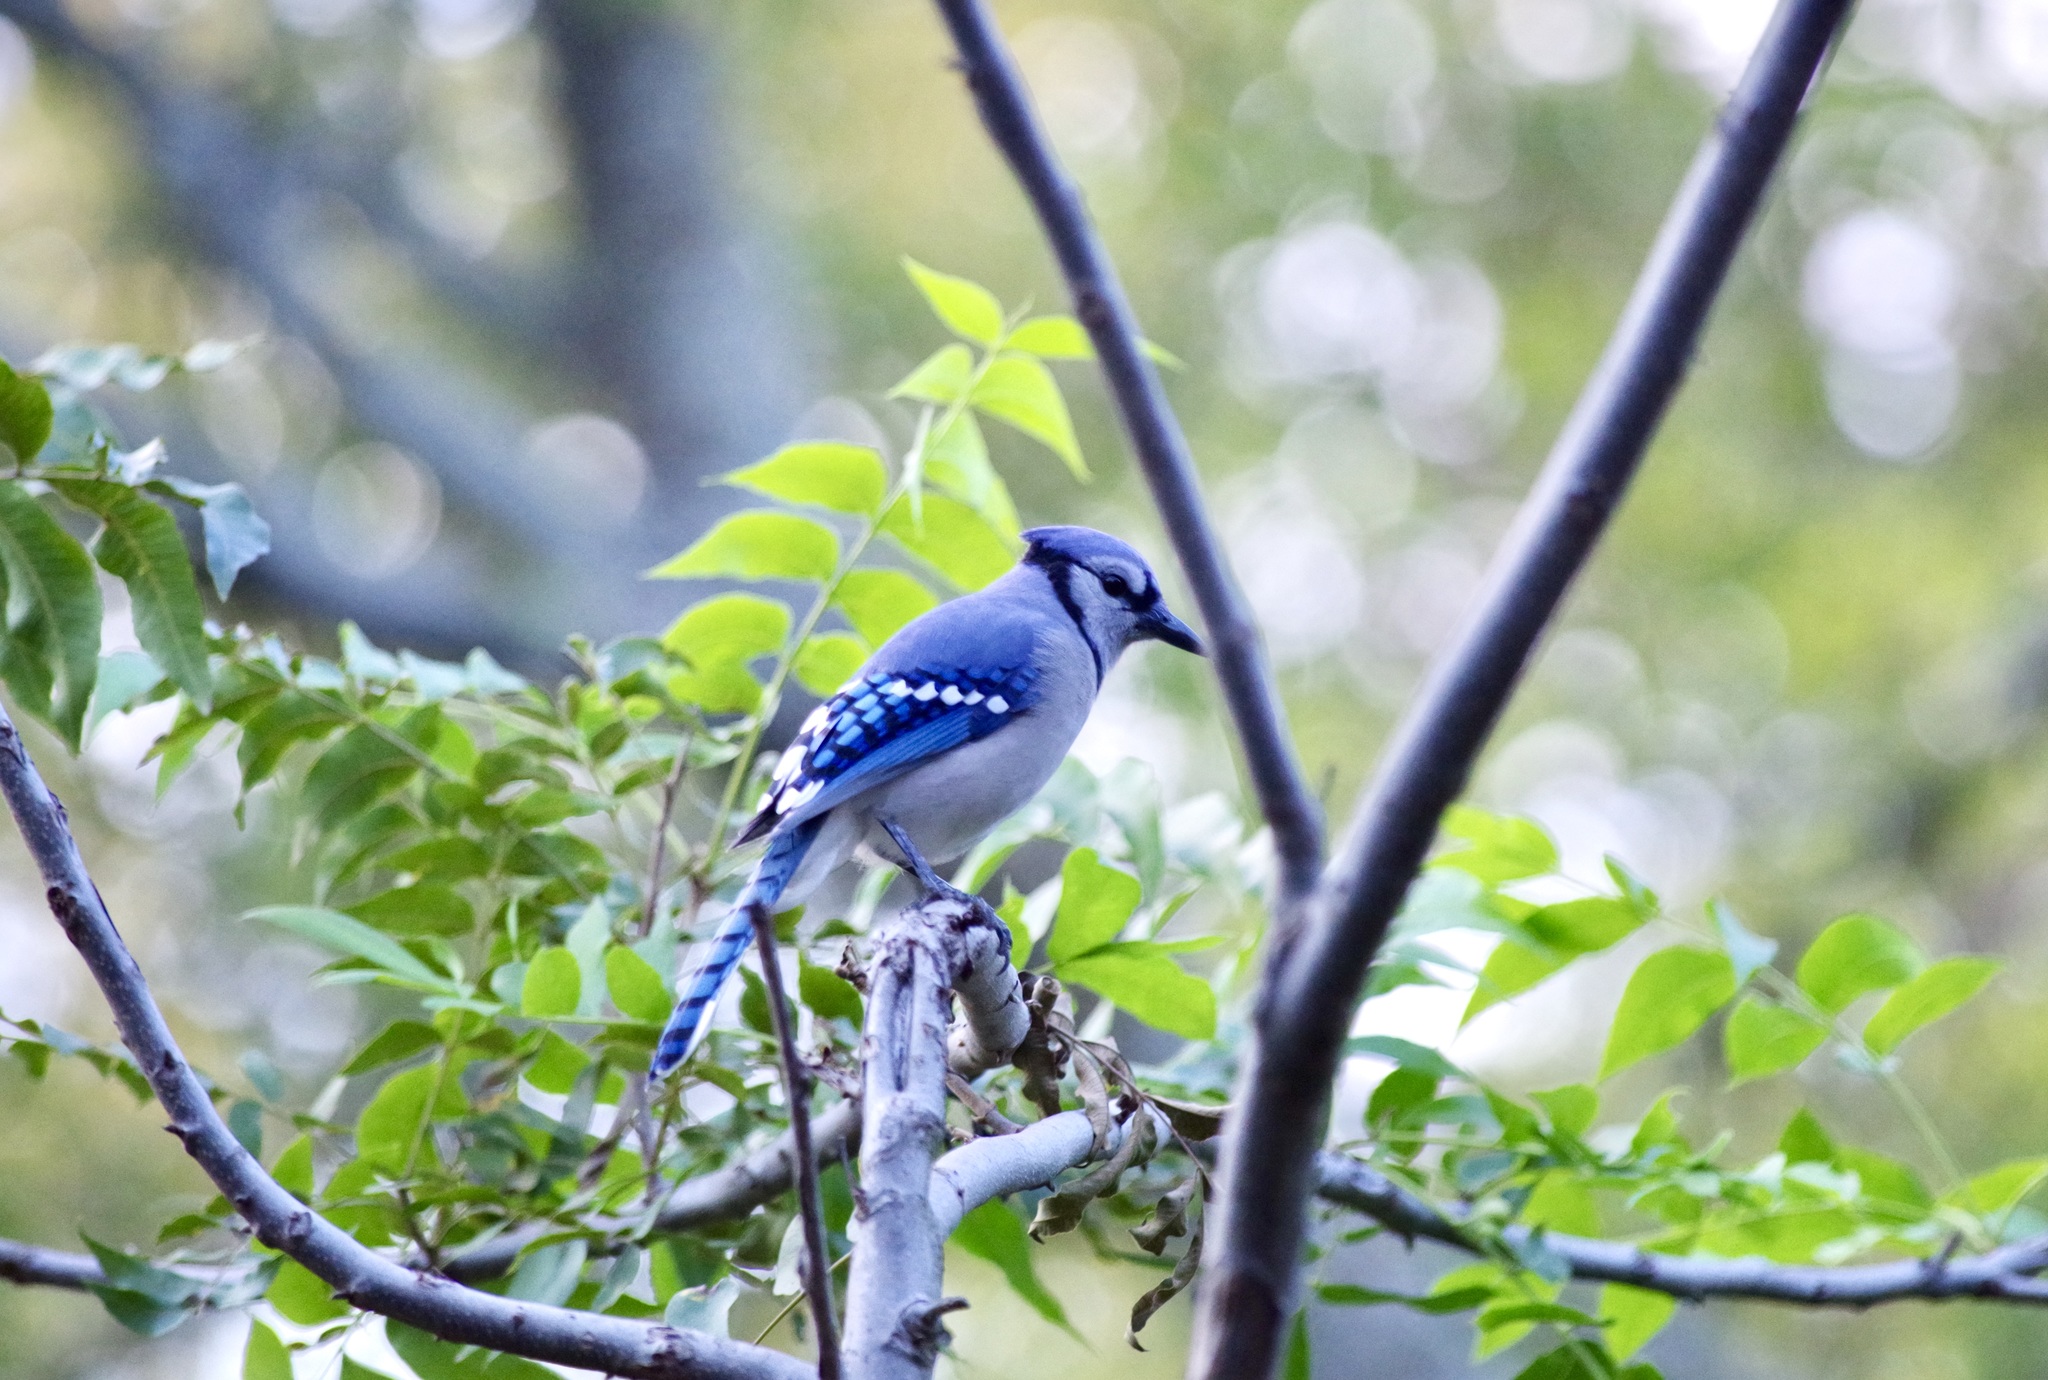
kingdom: Animalia
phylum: Chordata
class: Aves
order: Passeriformes
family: Corvidae
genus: Cyanocitta
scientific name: Cyanocitta cristata
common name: Blue jay
